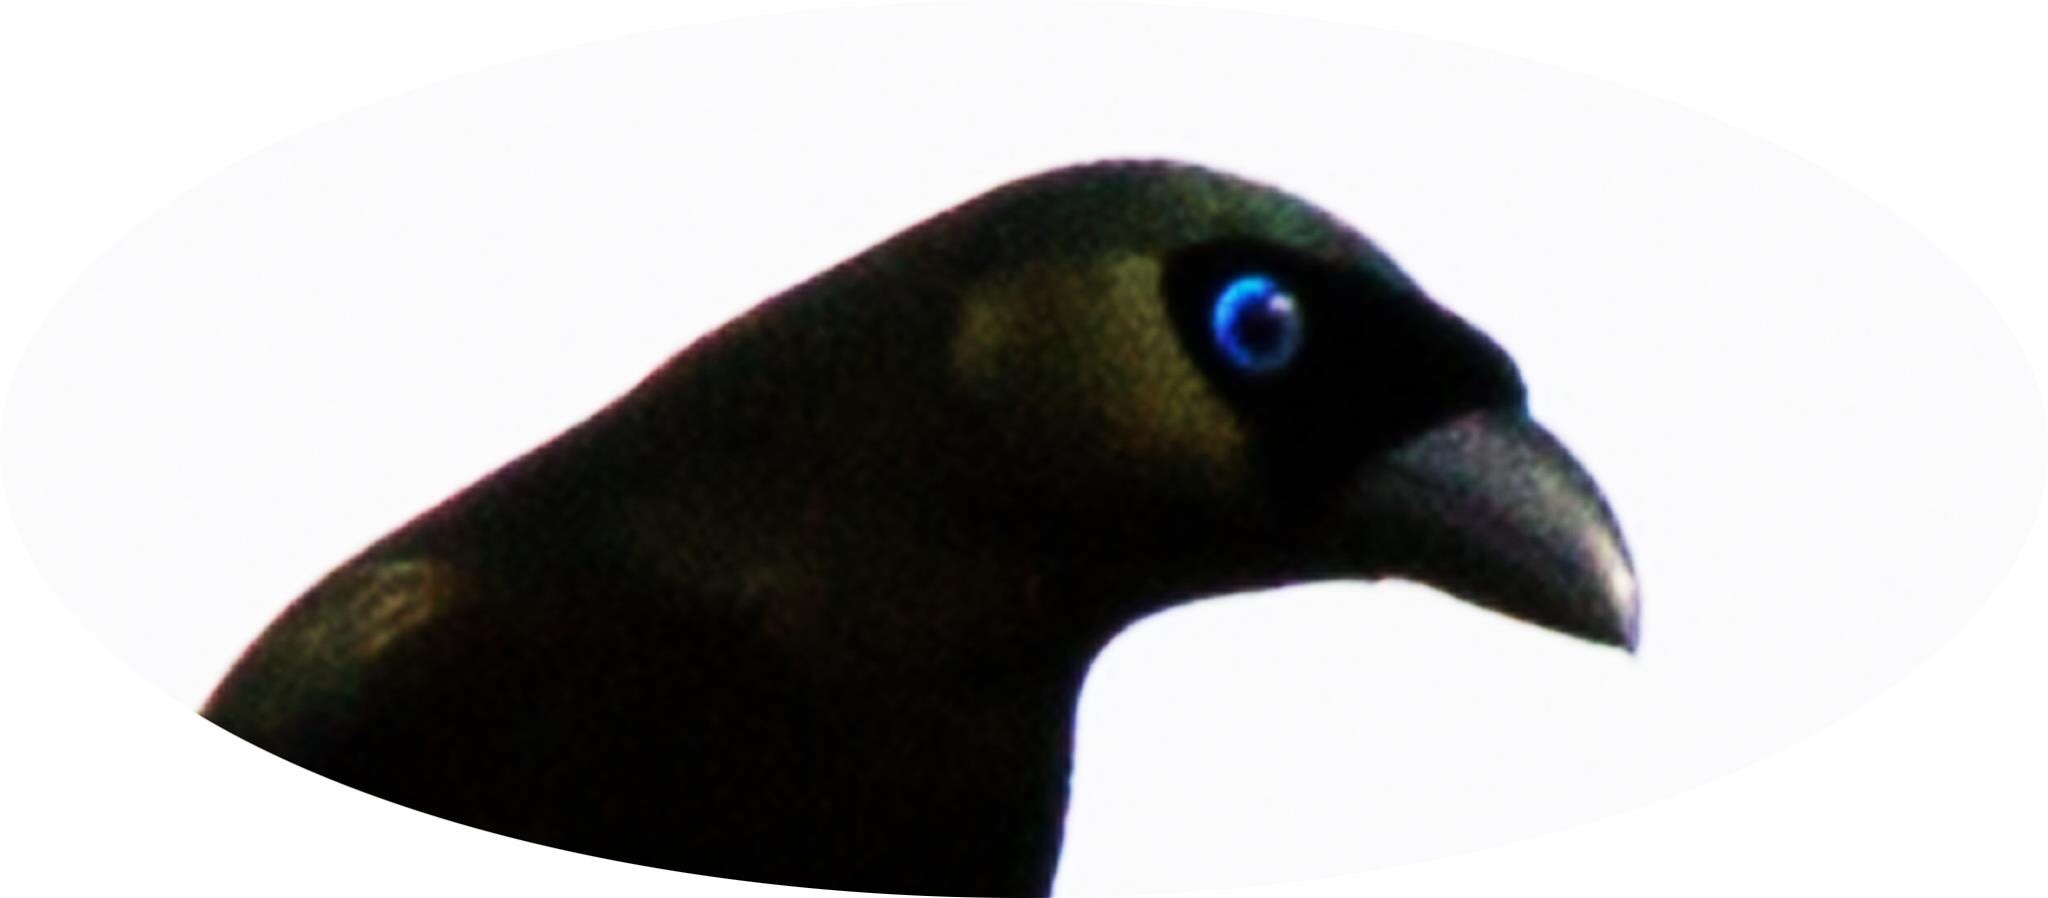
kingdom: Animalia
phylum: Chordata
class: Aves
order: Passeriformes
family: Corvidae
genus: Crypsirina
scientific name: Crypsirina temia
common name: Racket-tailed treepie
